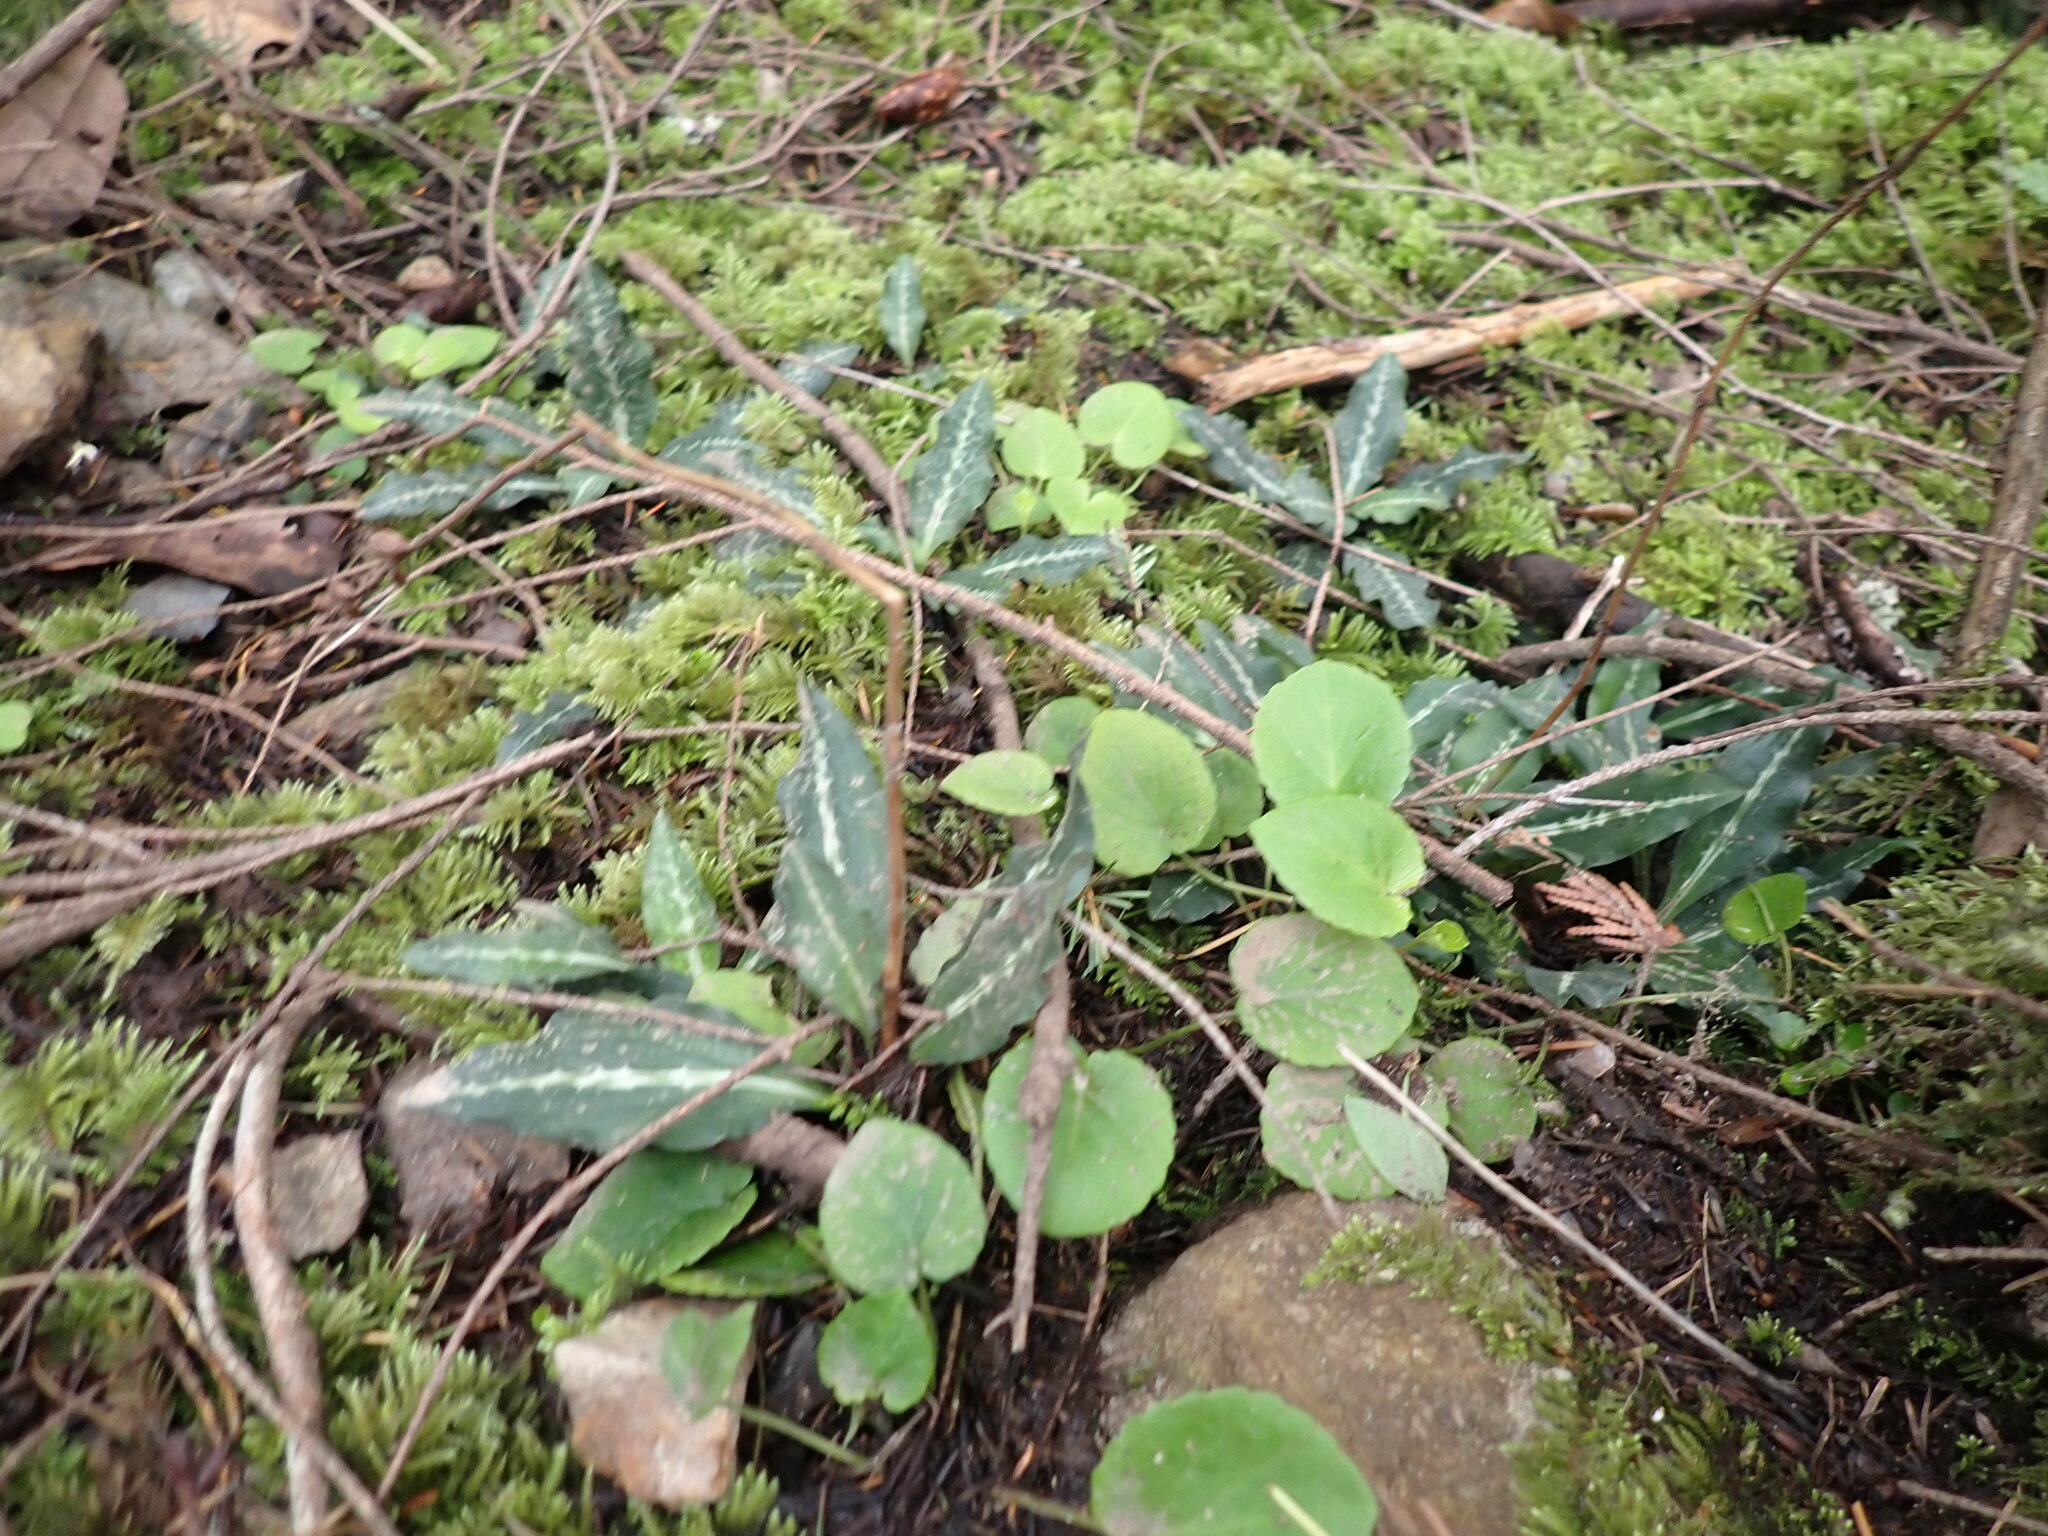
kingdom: Plantae
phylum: Tracheophyta
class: Liliopsida
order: Asparagales
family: Orchidaceae
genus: Goodyera
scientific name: Goodyera oblongifolia
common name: Giant rattlesnake-plantain
